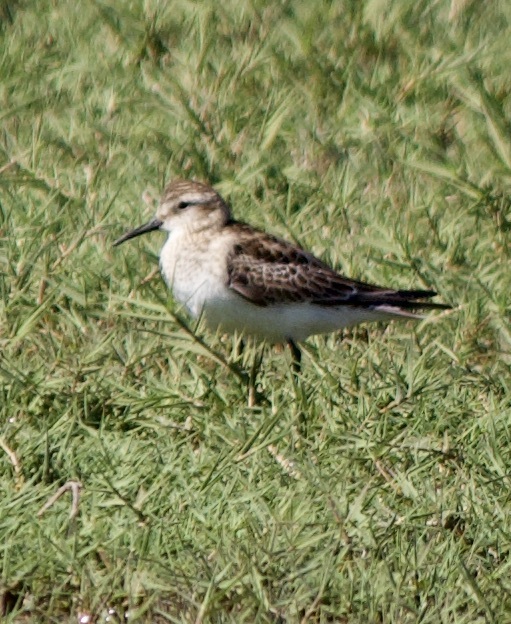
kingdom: Animalia
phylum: Chordata
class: Aves
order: Charadriiformes
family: Scolopacidae
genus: Calidris
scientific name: Calidris bairdii
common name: Baird's sandpiper
